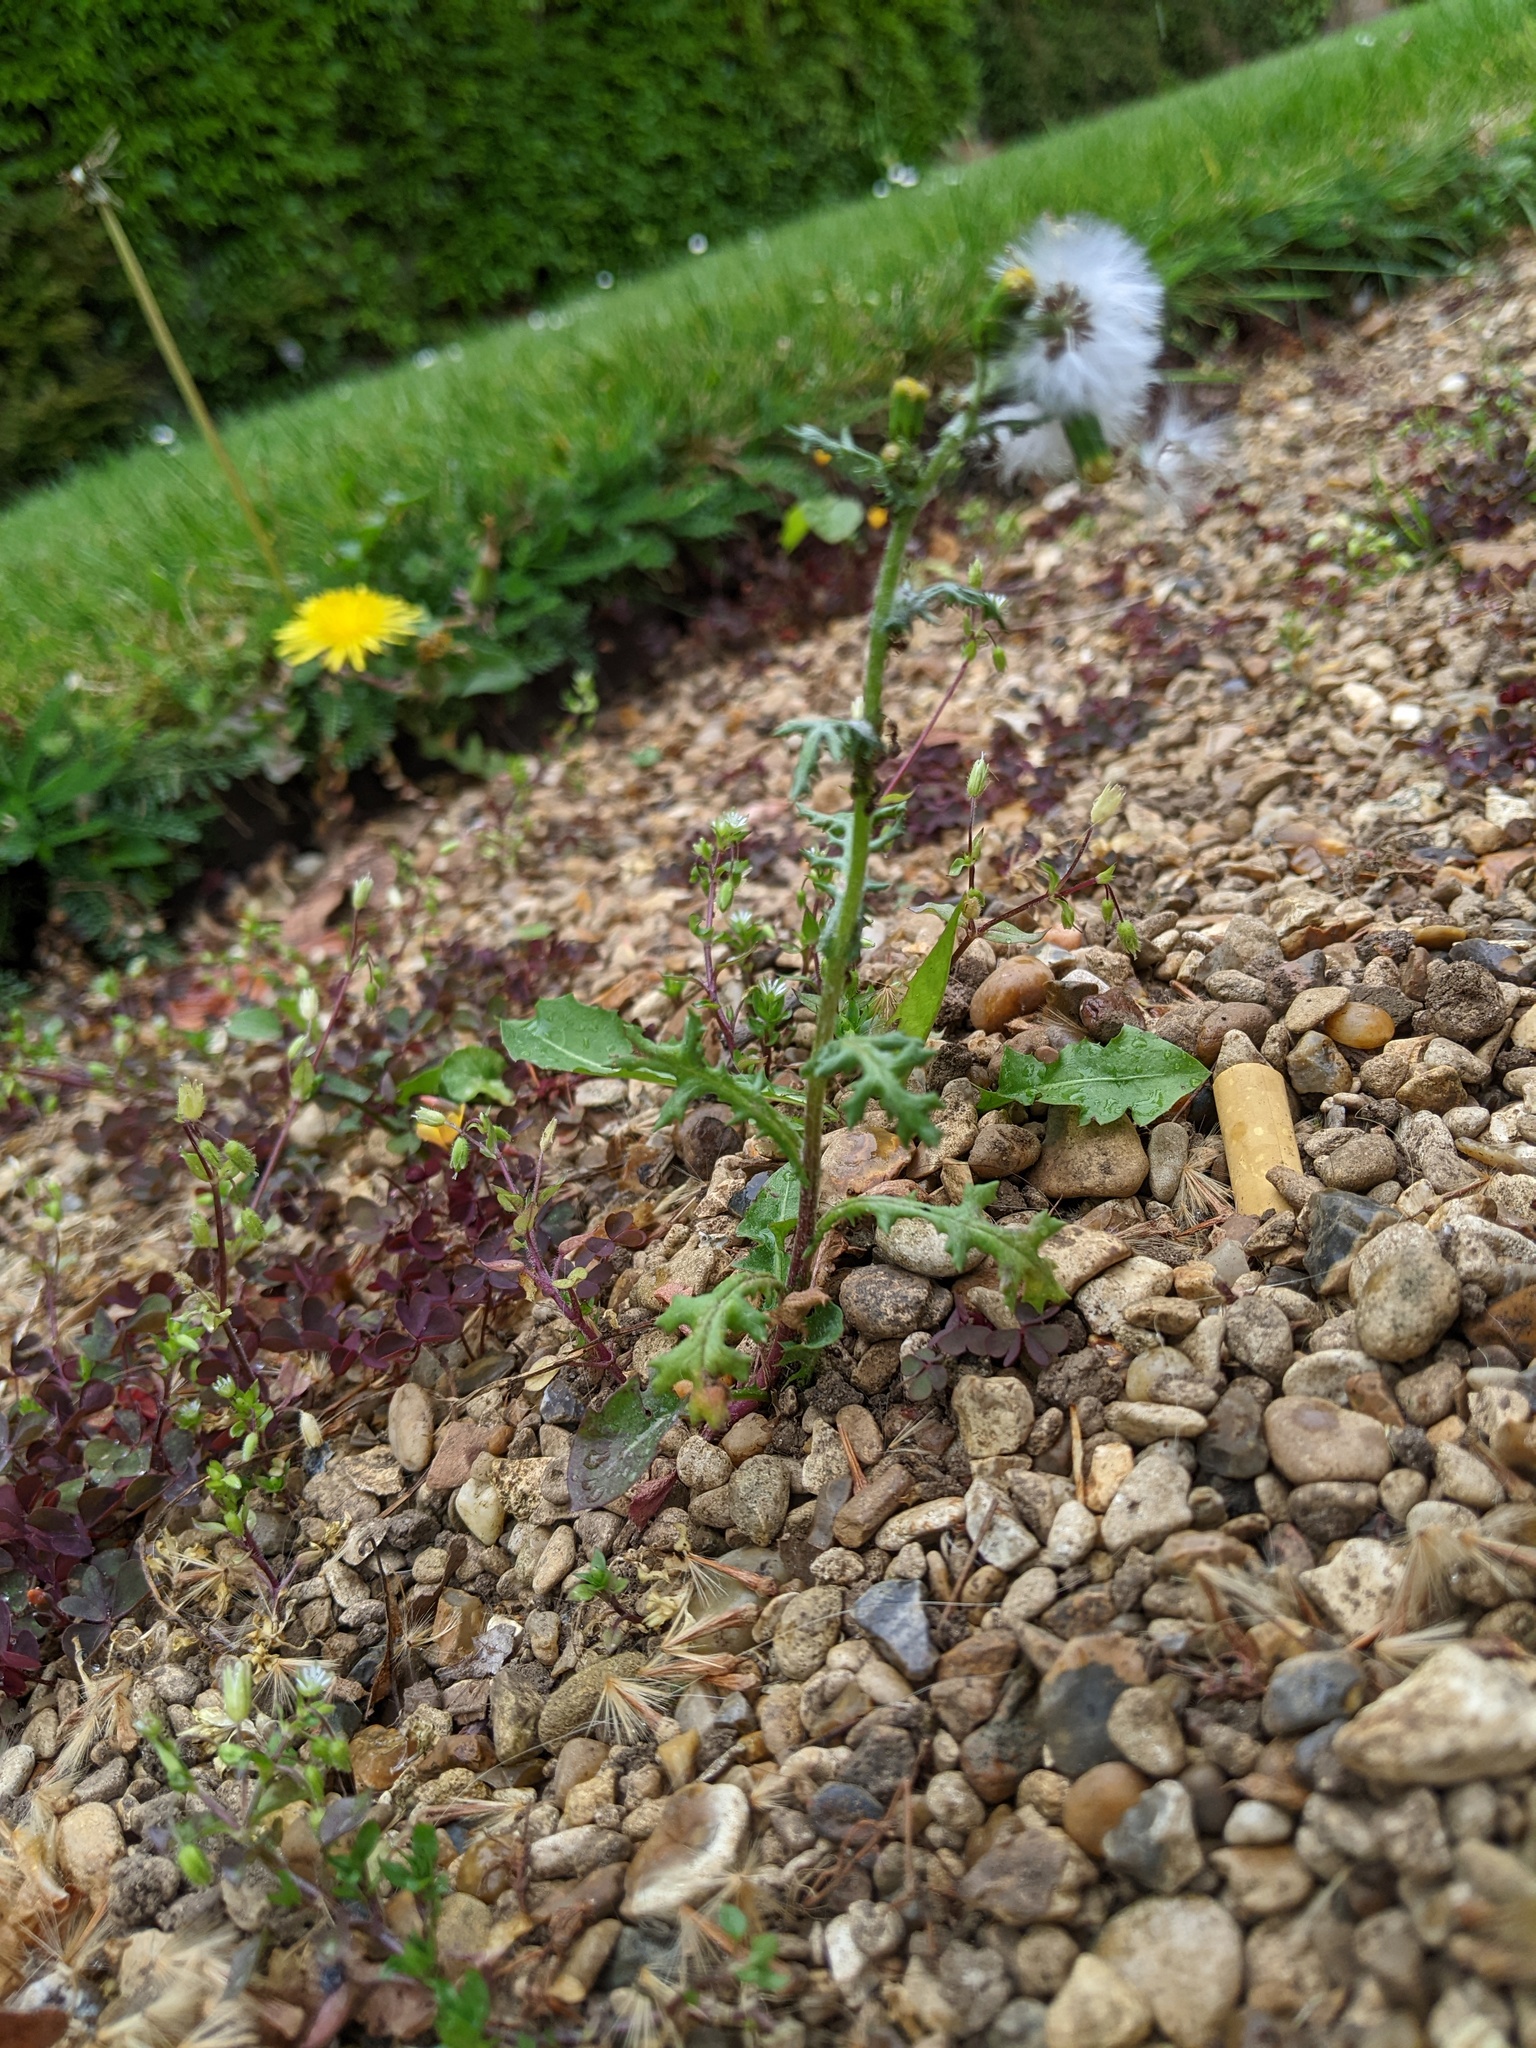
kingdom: Plantae
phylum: Tracheophyta
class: Magnoliopsida
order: Asterales
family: Asteraceae
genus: Senecio
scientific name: Senecio vulgaris
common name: Old-man-in-the-spring
